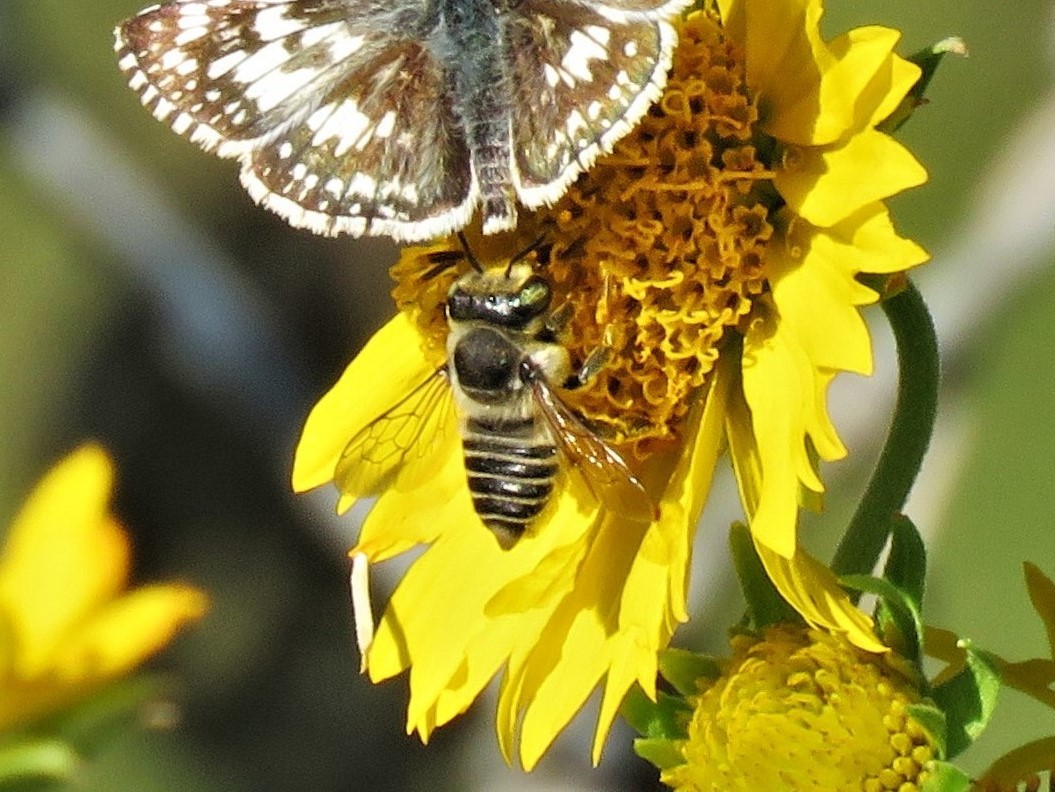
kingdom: Animalia
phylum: Arthropoda
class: Insecta
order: Hymenoptera
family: Megachilidae
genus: Megachile
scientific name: Megachile parallela
